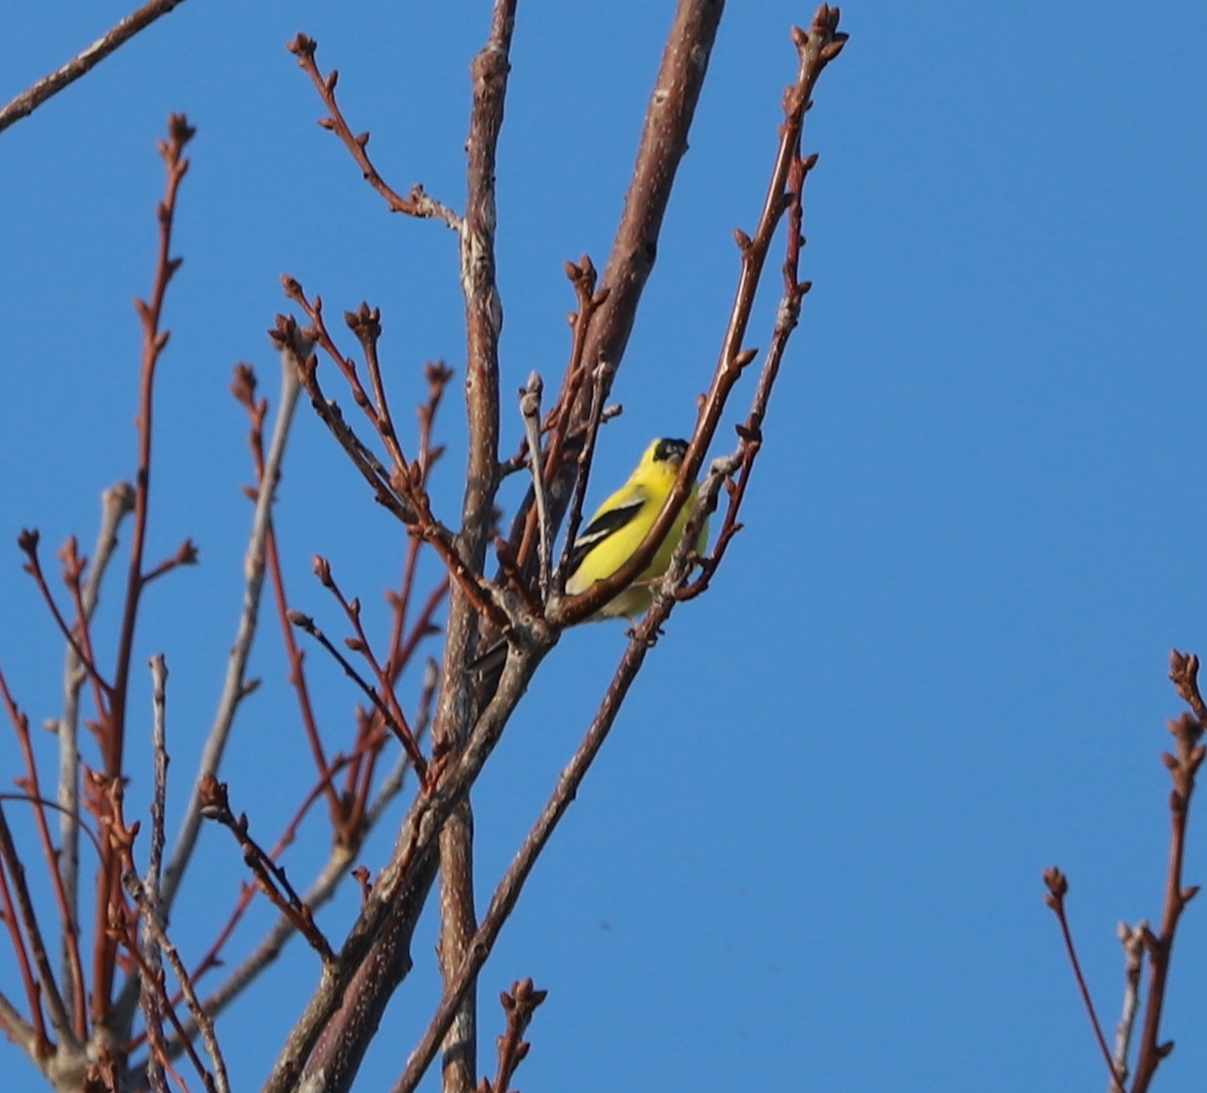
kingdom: Animalia
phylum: Chordata
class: Aves
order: Passeriformes
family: Fringillidae
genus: Spinus
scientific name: Spinus tristis
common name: American goldfinch
